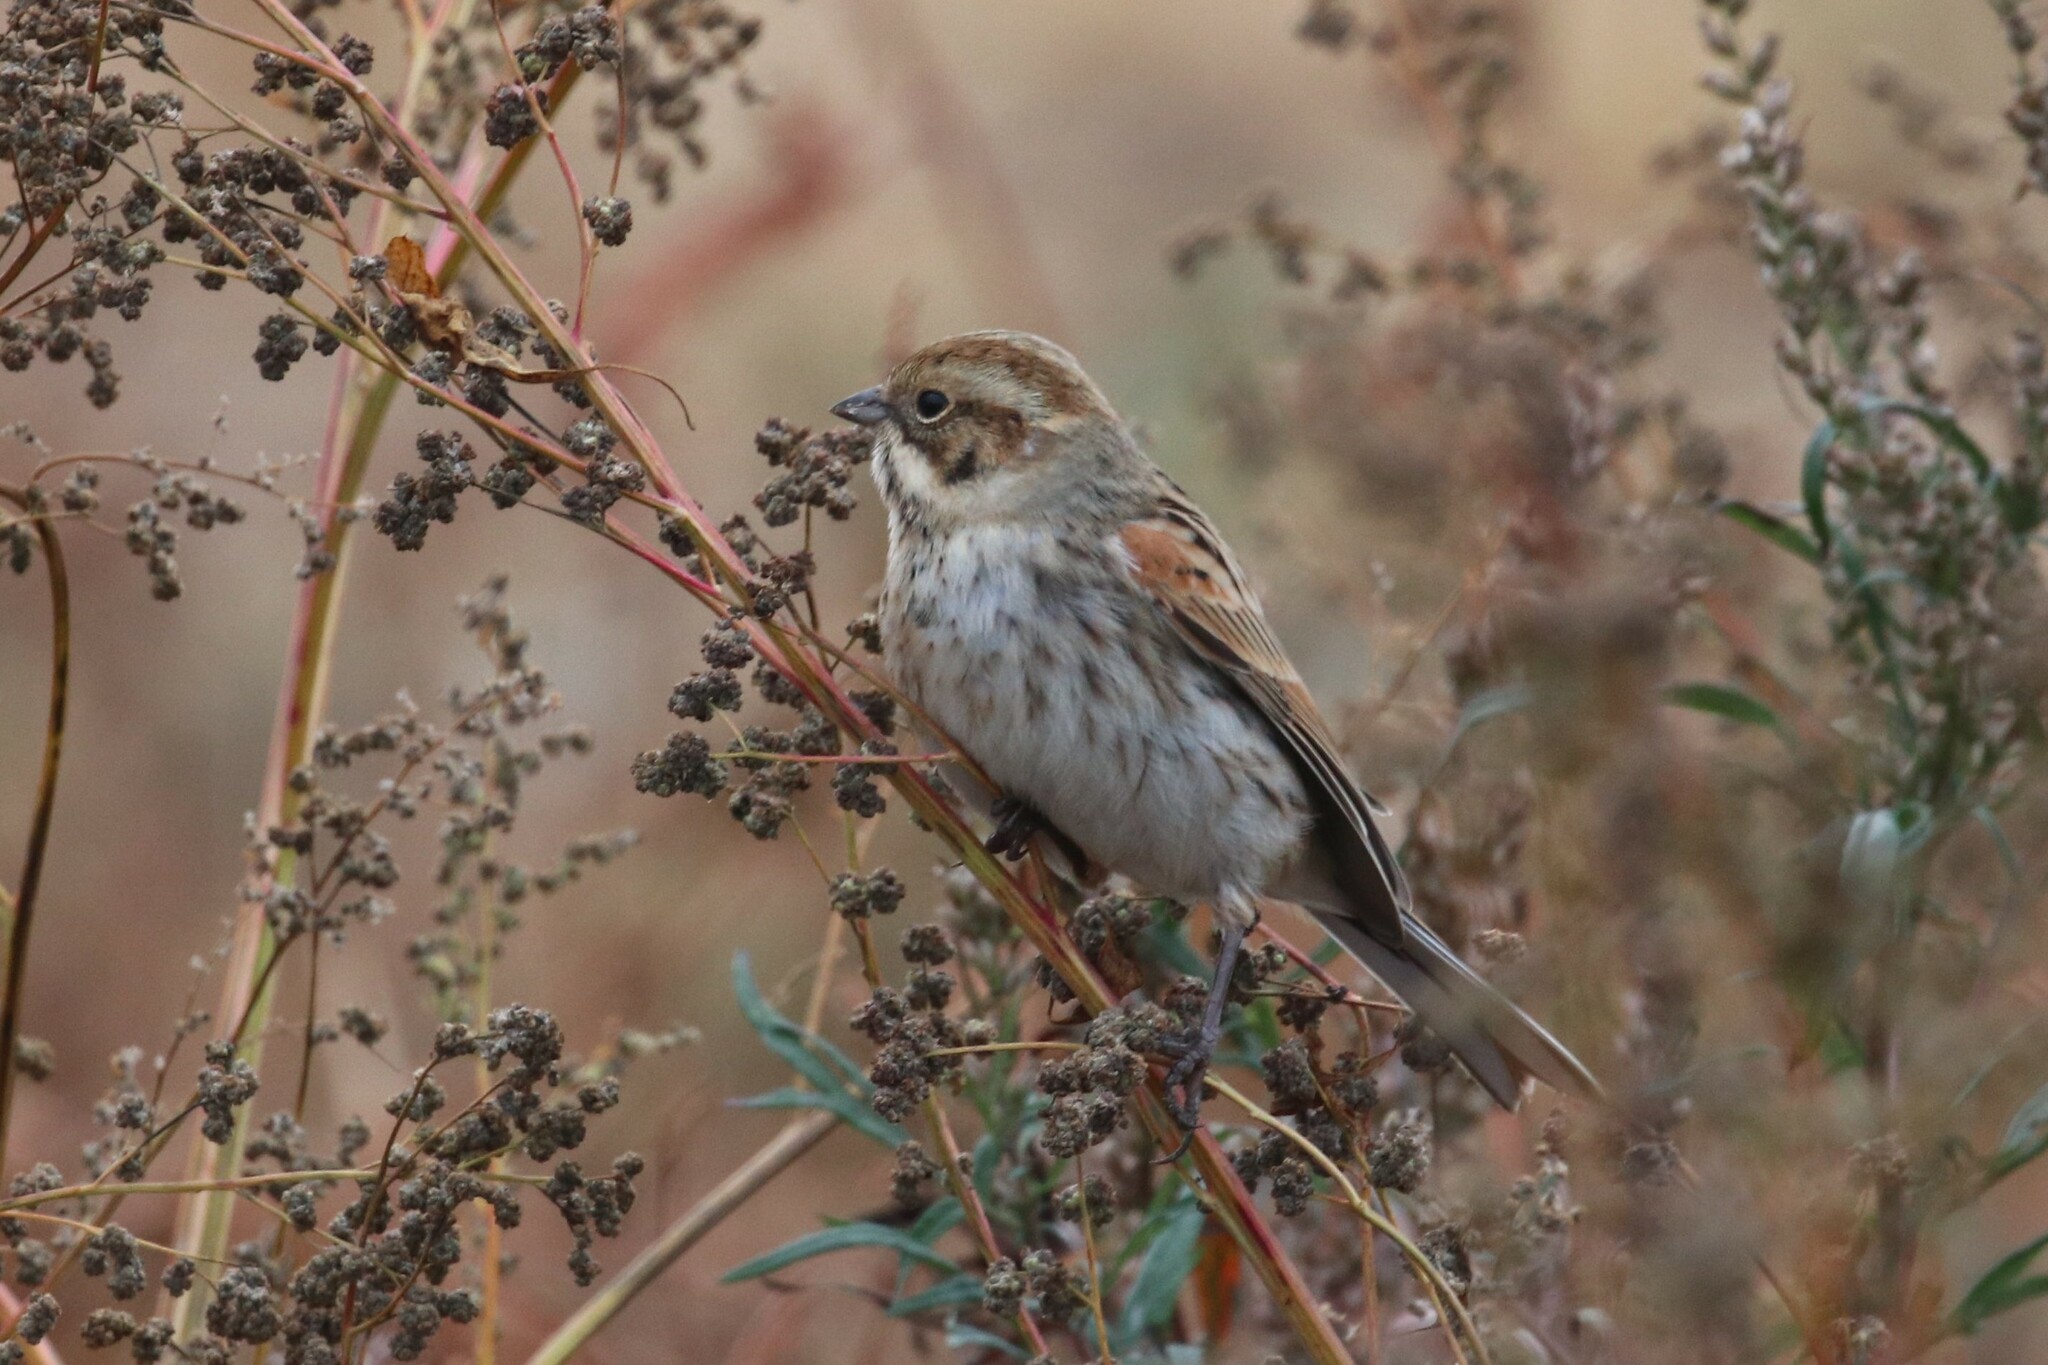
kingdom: Animalia
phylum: Chordata
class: Aves
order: Passeriformes
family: Emberizidae
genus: Emberiza
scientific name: Emberiza schoeniclus
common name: Reed bunting
